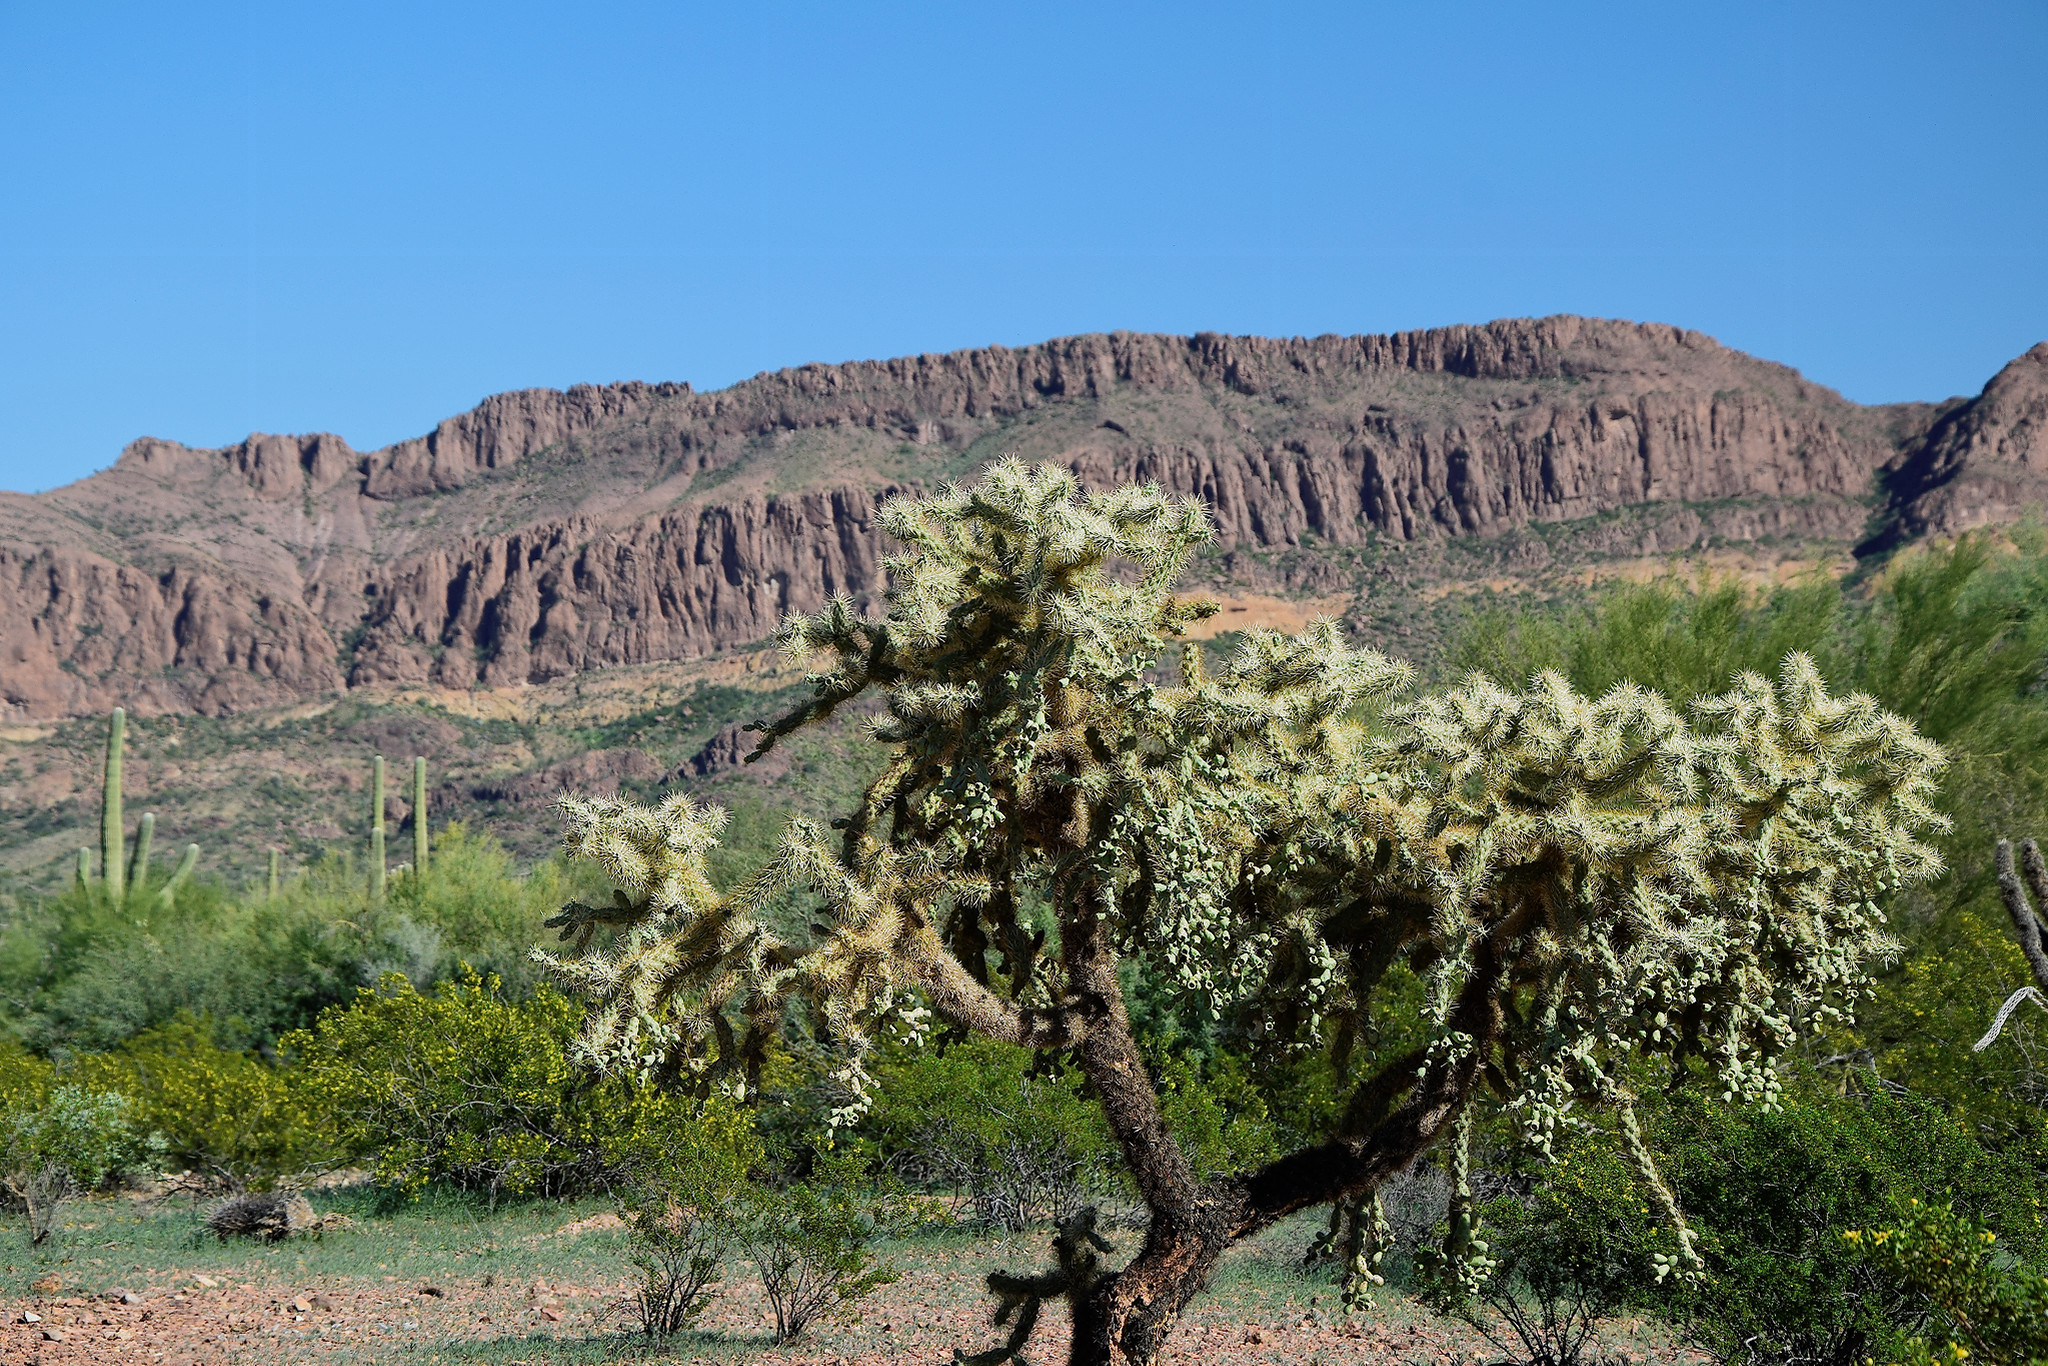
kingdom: Plantae
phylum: Tracheophyta
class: Magnoliopsida
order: Caryophyllales
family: Cactaceae
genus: Cylindropuntia
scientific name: Cylindropuntia fulgida
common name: Jumping cholla
